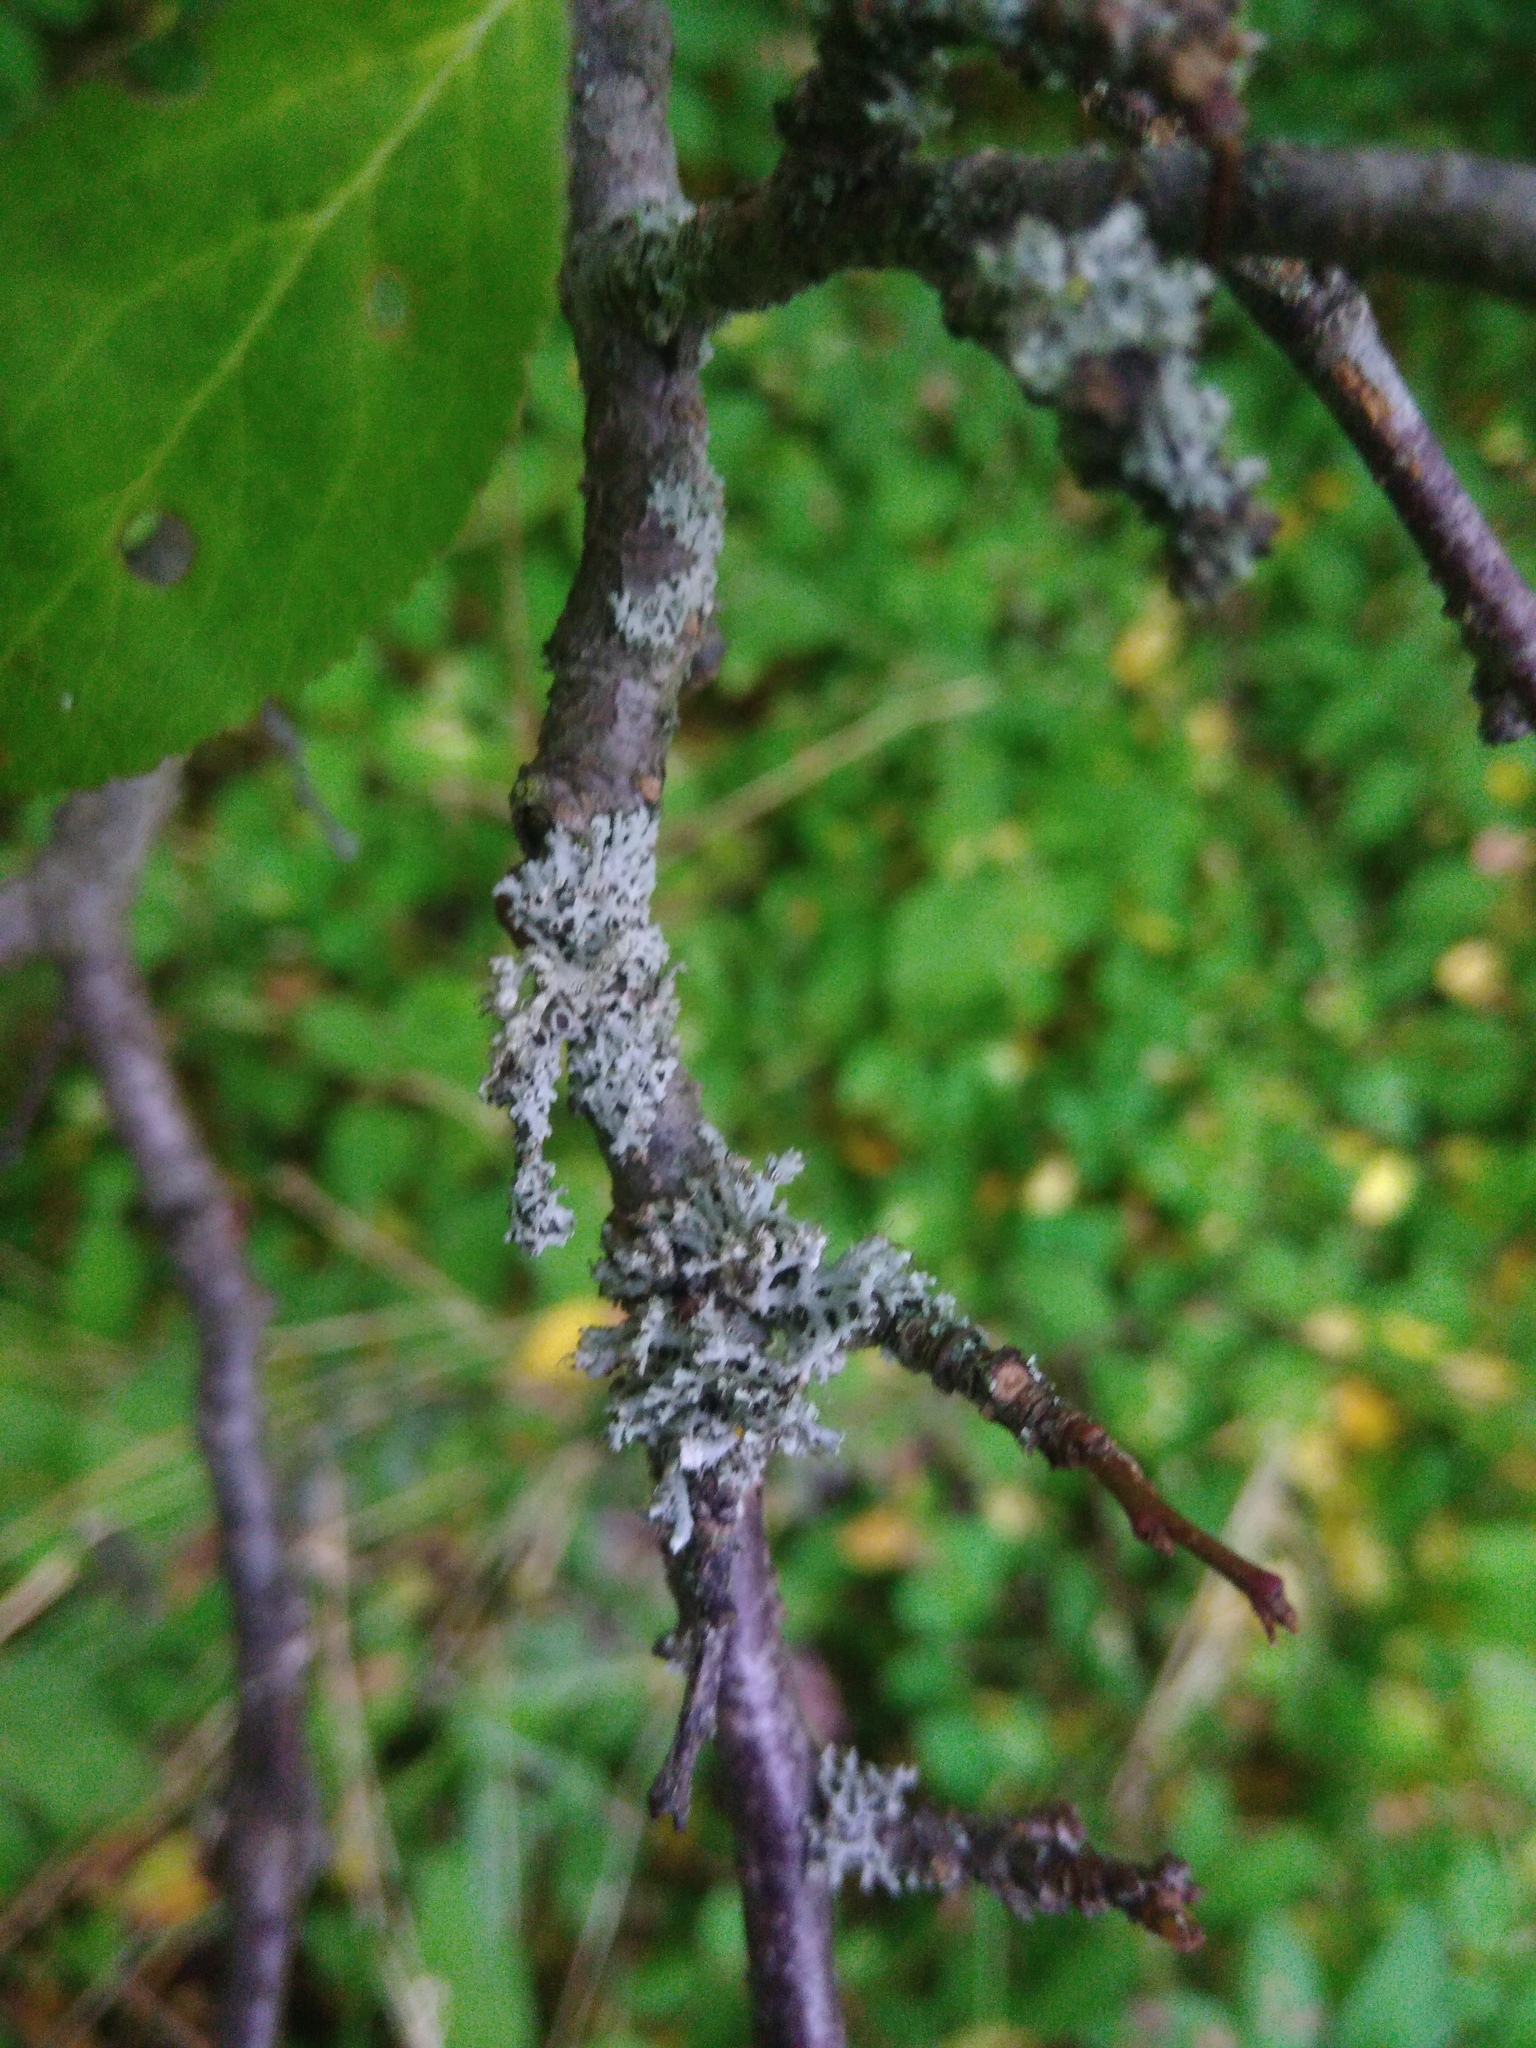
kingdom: Fungi
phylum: Ascomycota
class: Lecanoromycetes
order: Caliciales
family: Physciaceae
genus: Physcia
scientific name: Physcia tenella
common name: Fringed rosette lichen
